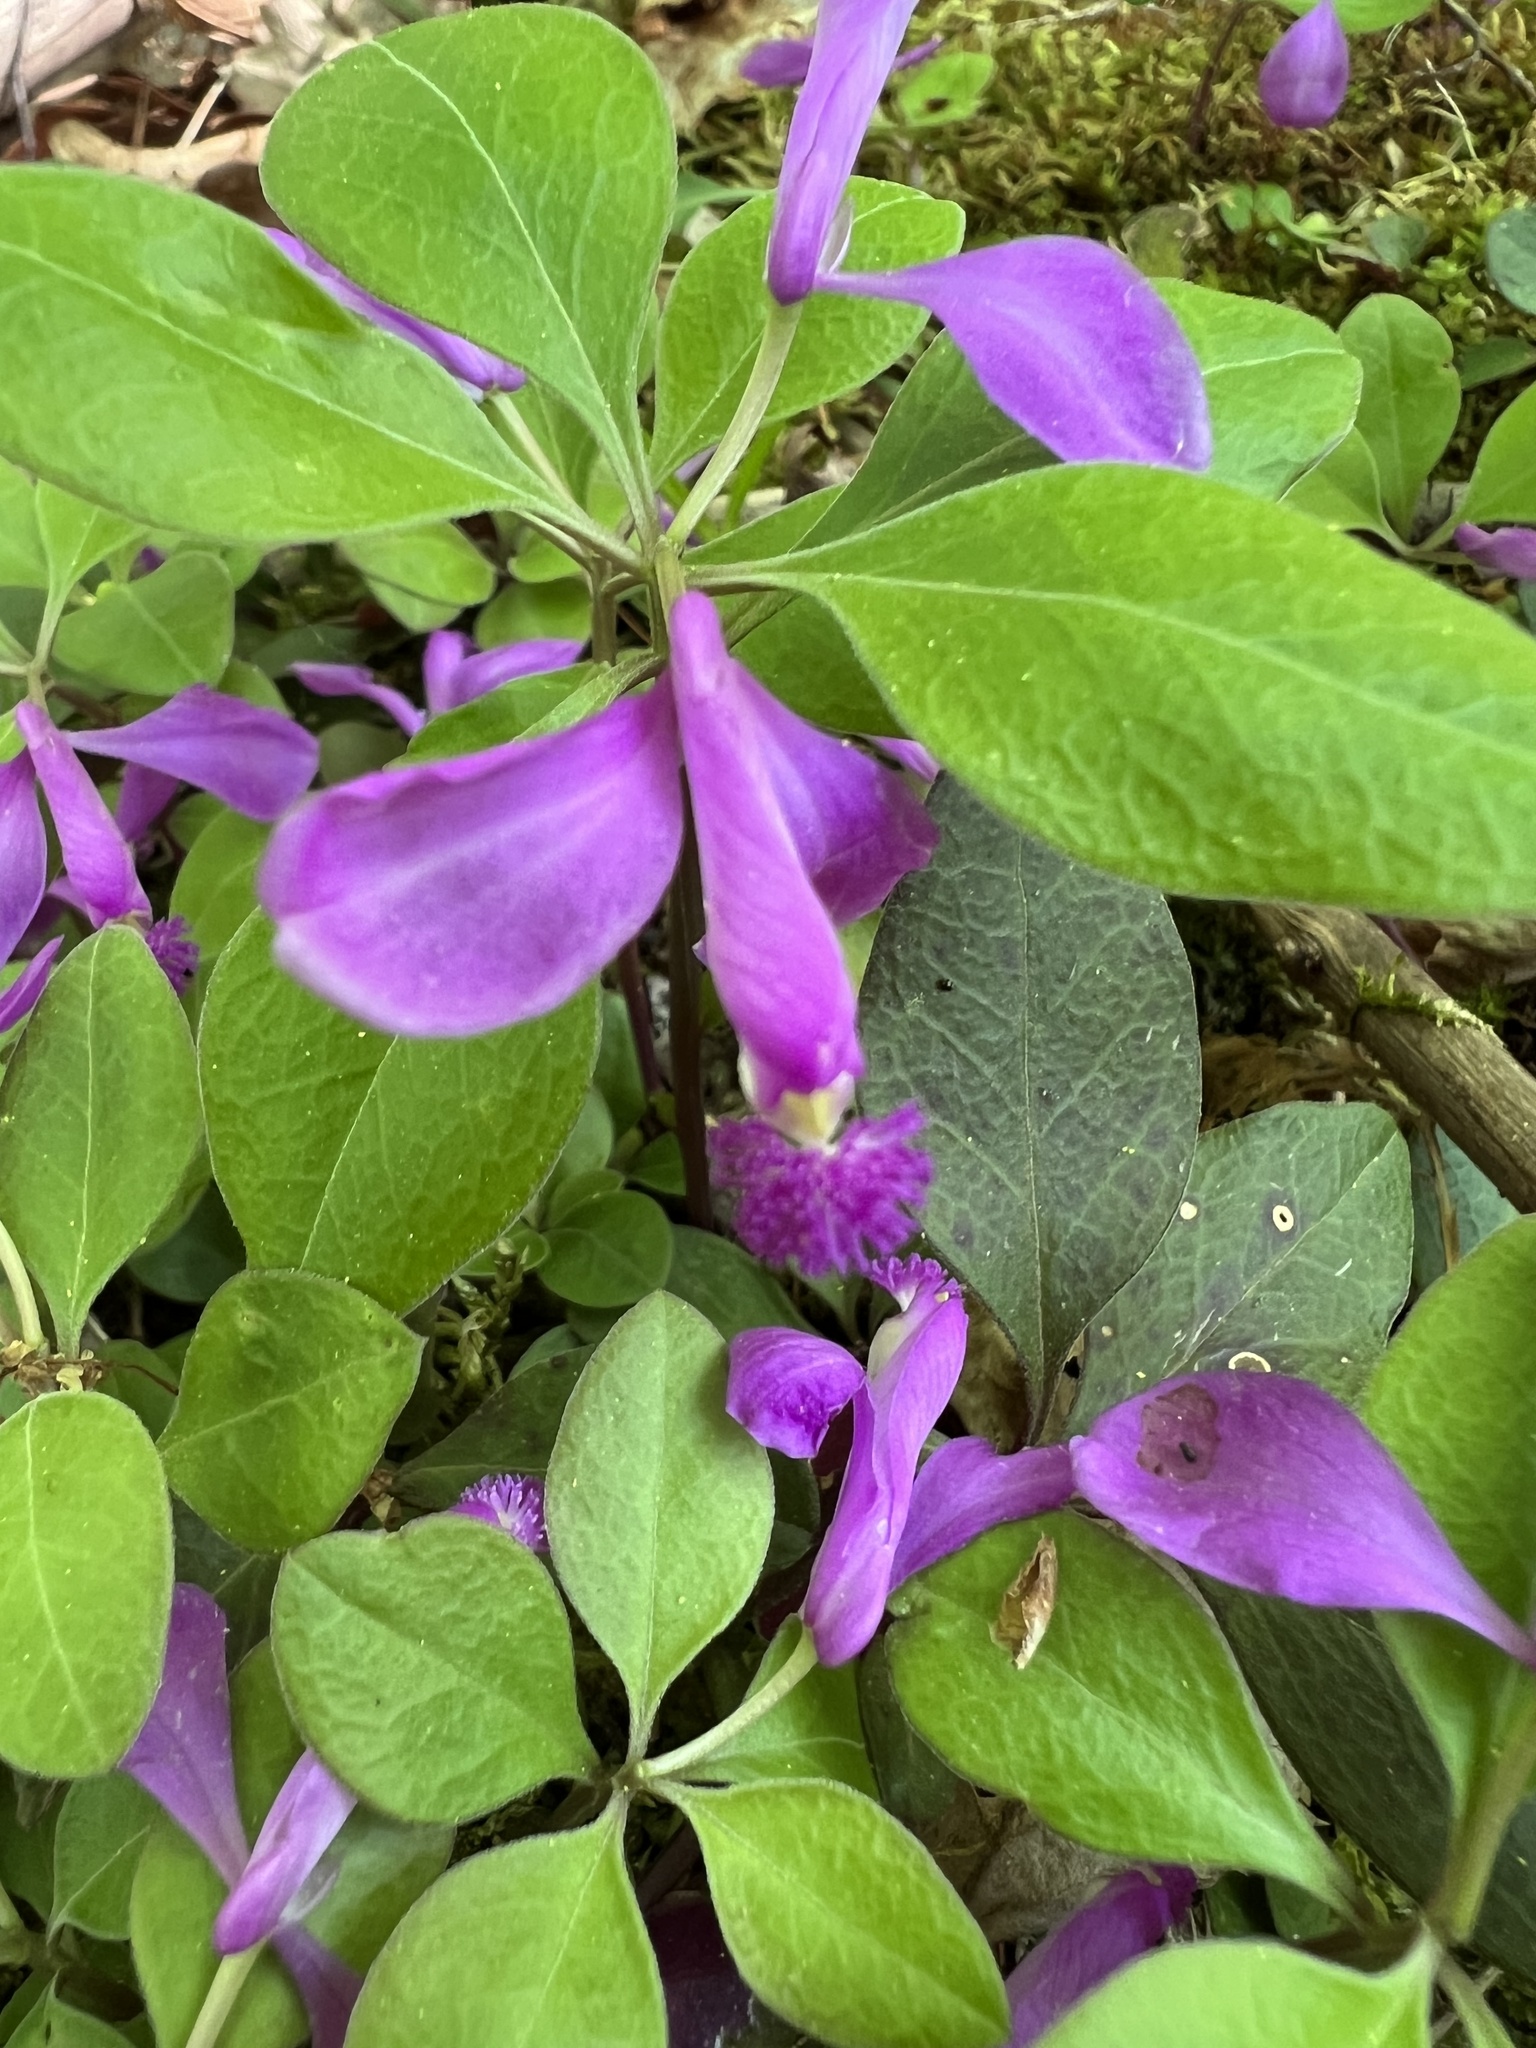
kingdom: Plantae
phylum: Tracheophyta
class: Magnoliopsida
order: Fabales
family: Polygalaceae
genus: Polygaloides
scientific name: Polygaloides paucifolia
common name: Bird-on-the-wing
